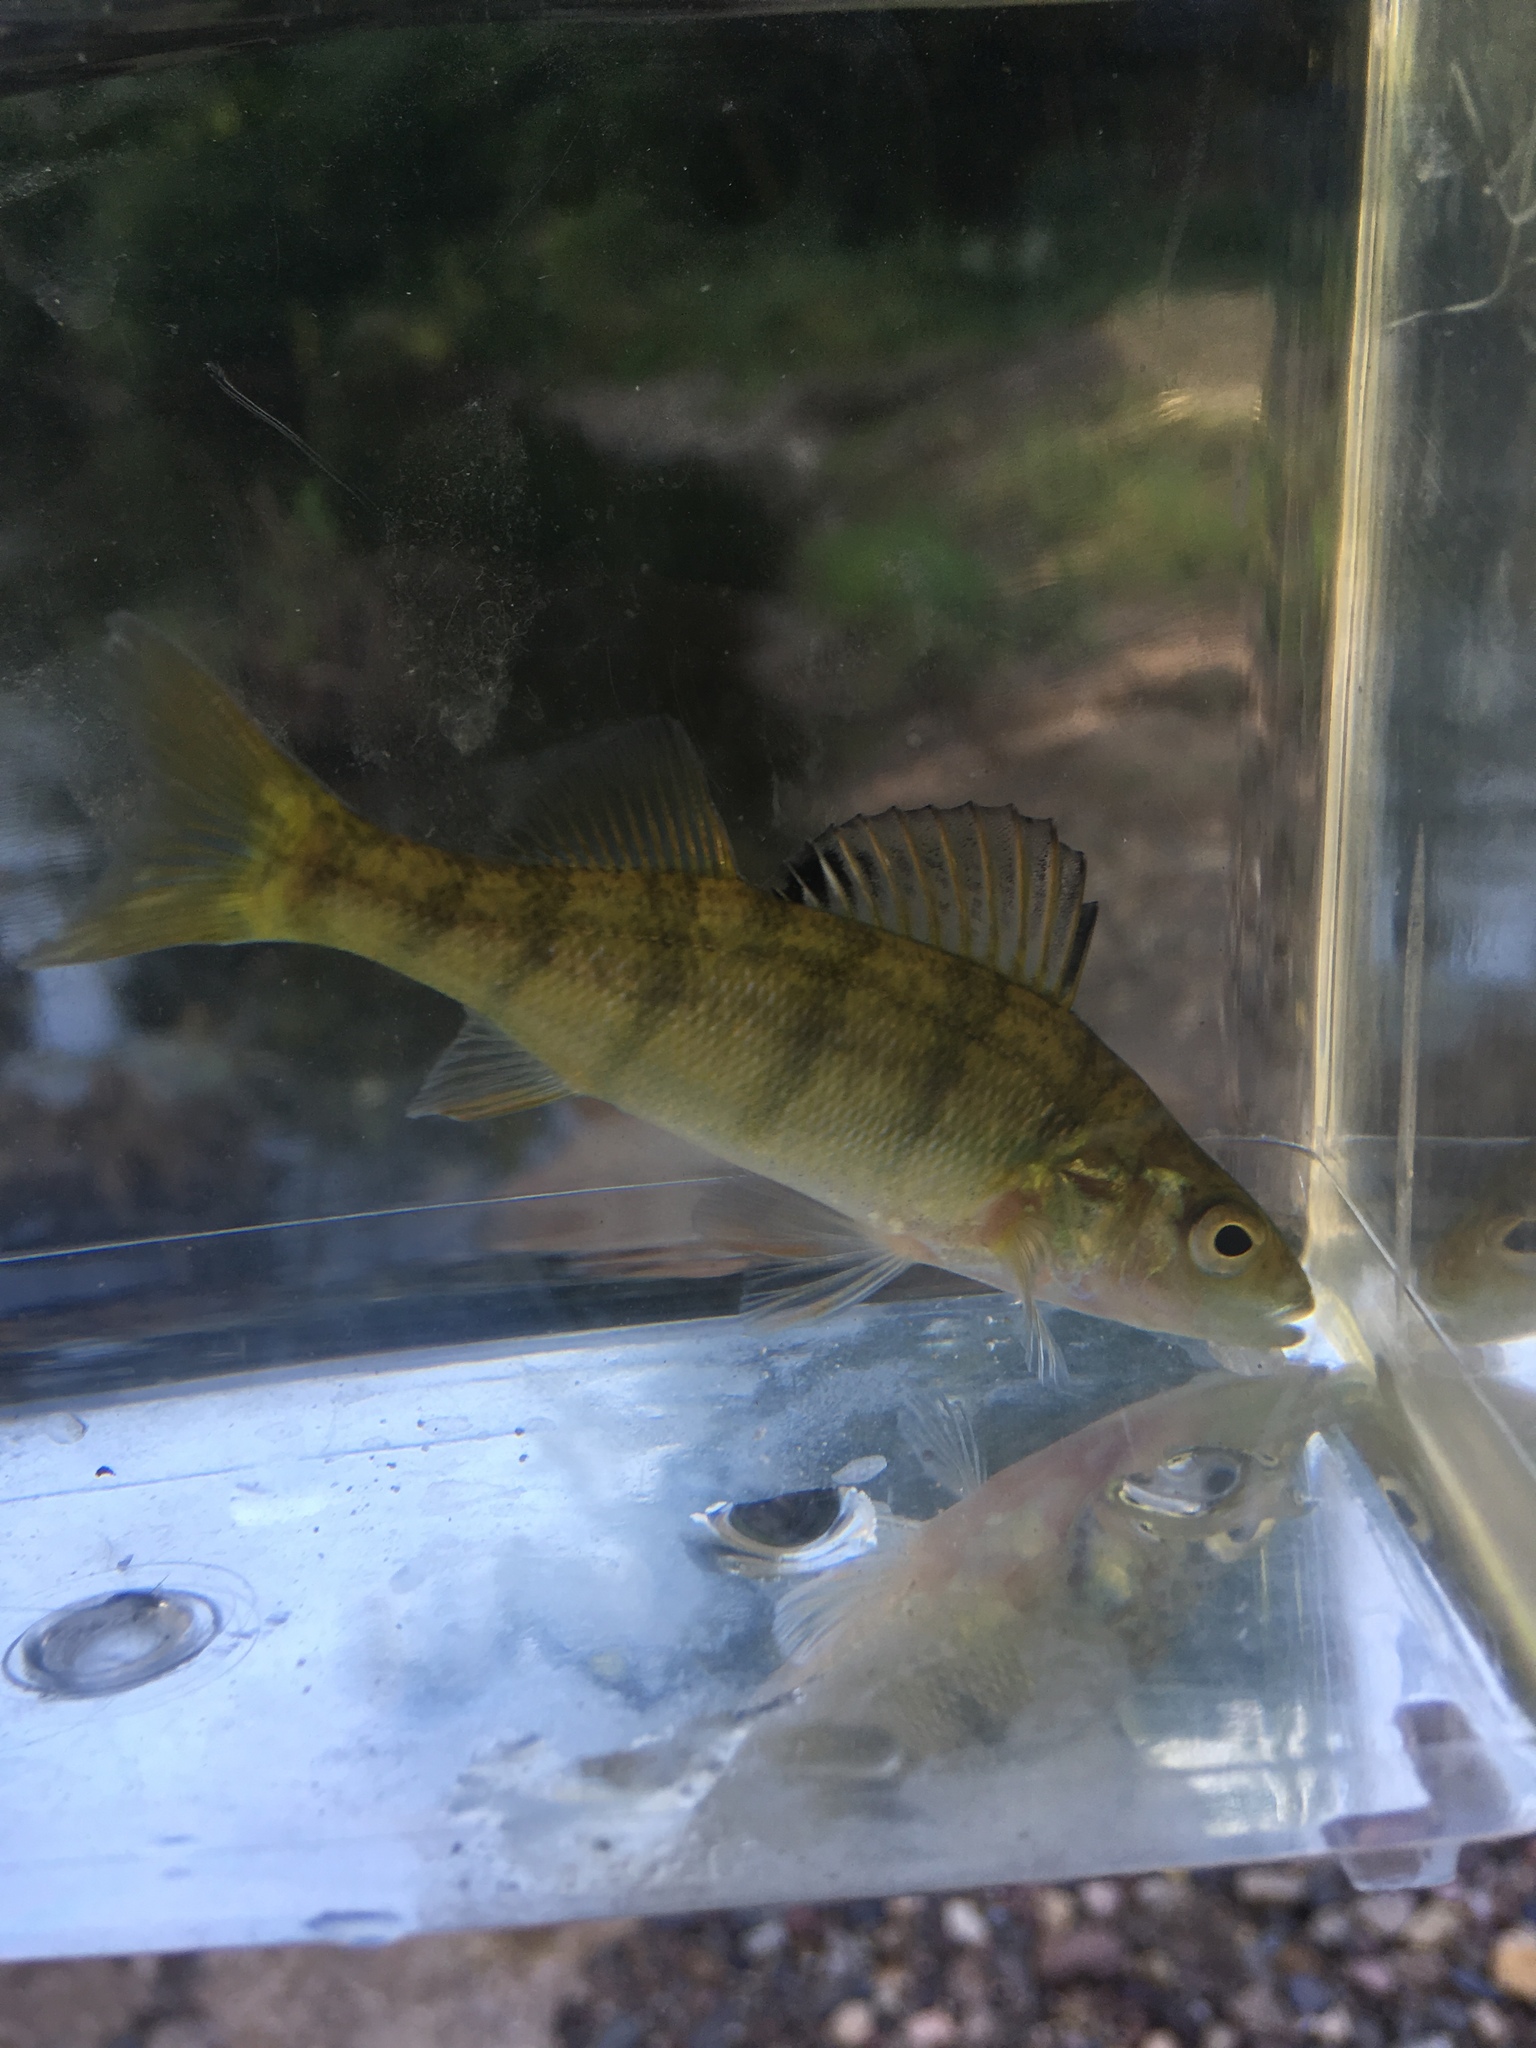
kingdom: Animalia
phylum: Chordata
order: Perciformes
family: Percidae
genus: Perca
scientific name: Perca flavescens
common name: Yellow perch
